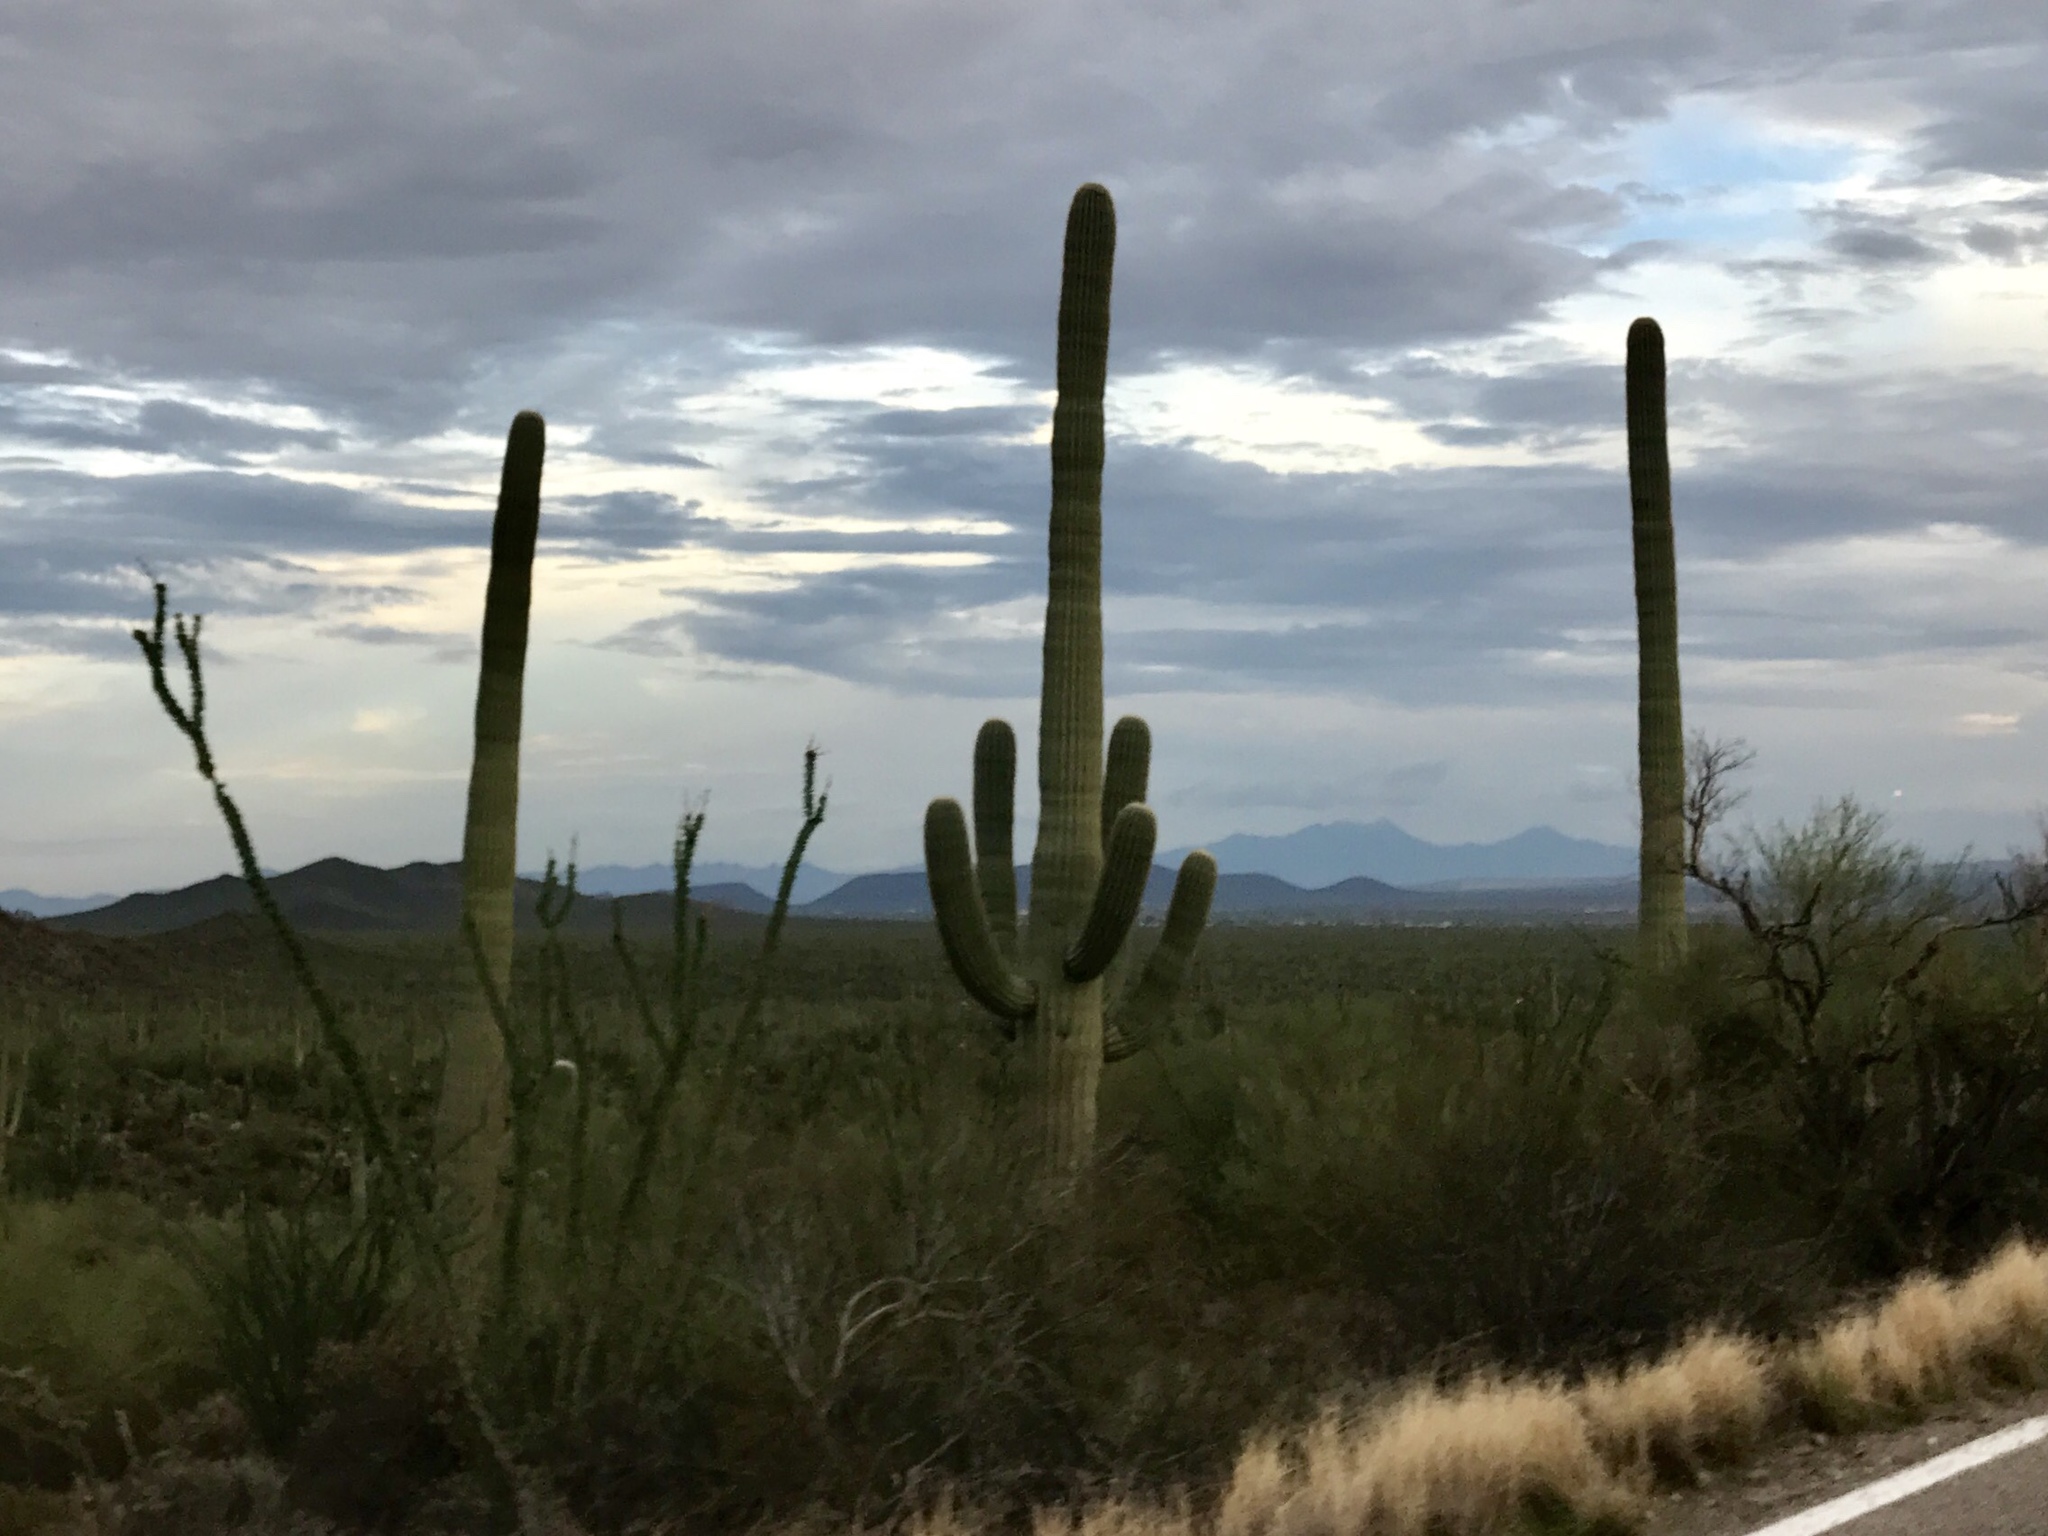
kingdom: Plantae
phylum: Tracheophyta
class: Magnoliopsida
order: Caryophyllales
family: Cactaceae
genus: Carnegiea
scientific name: Carnegiea gigantea
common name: Saguaro
